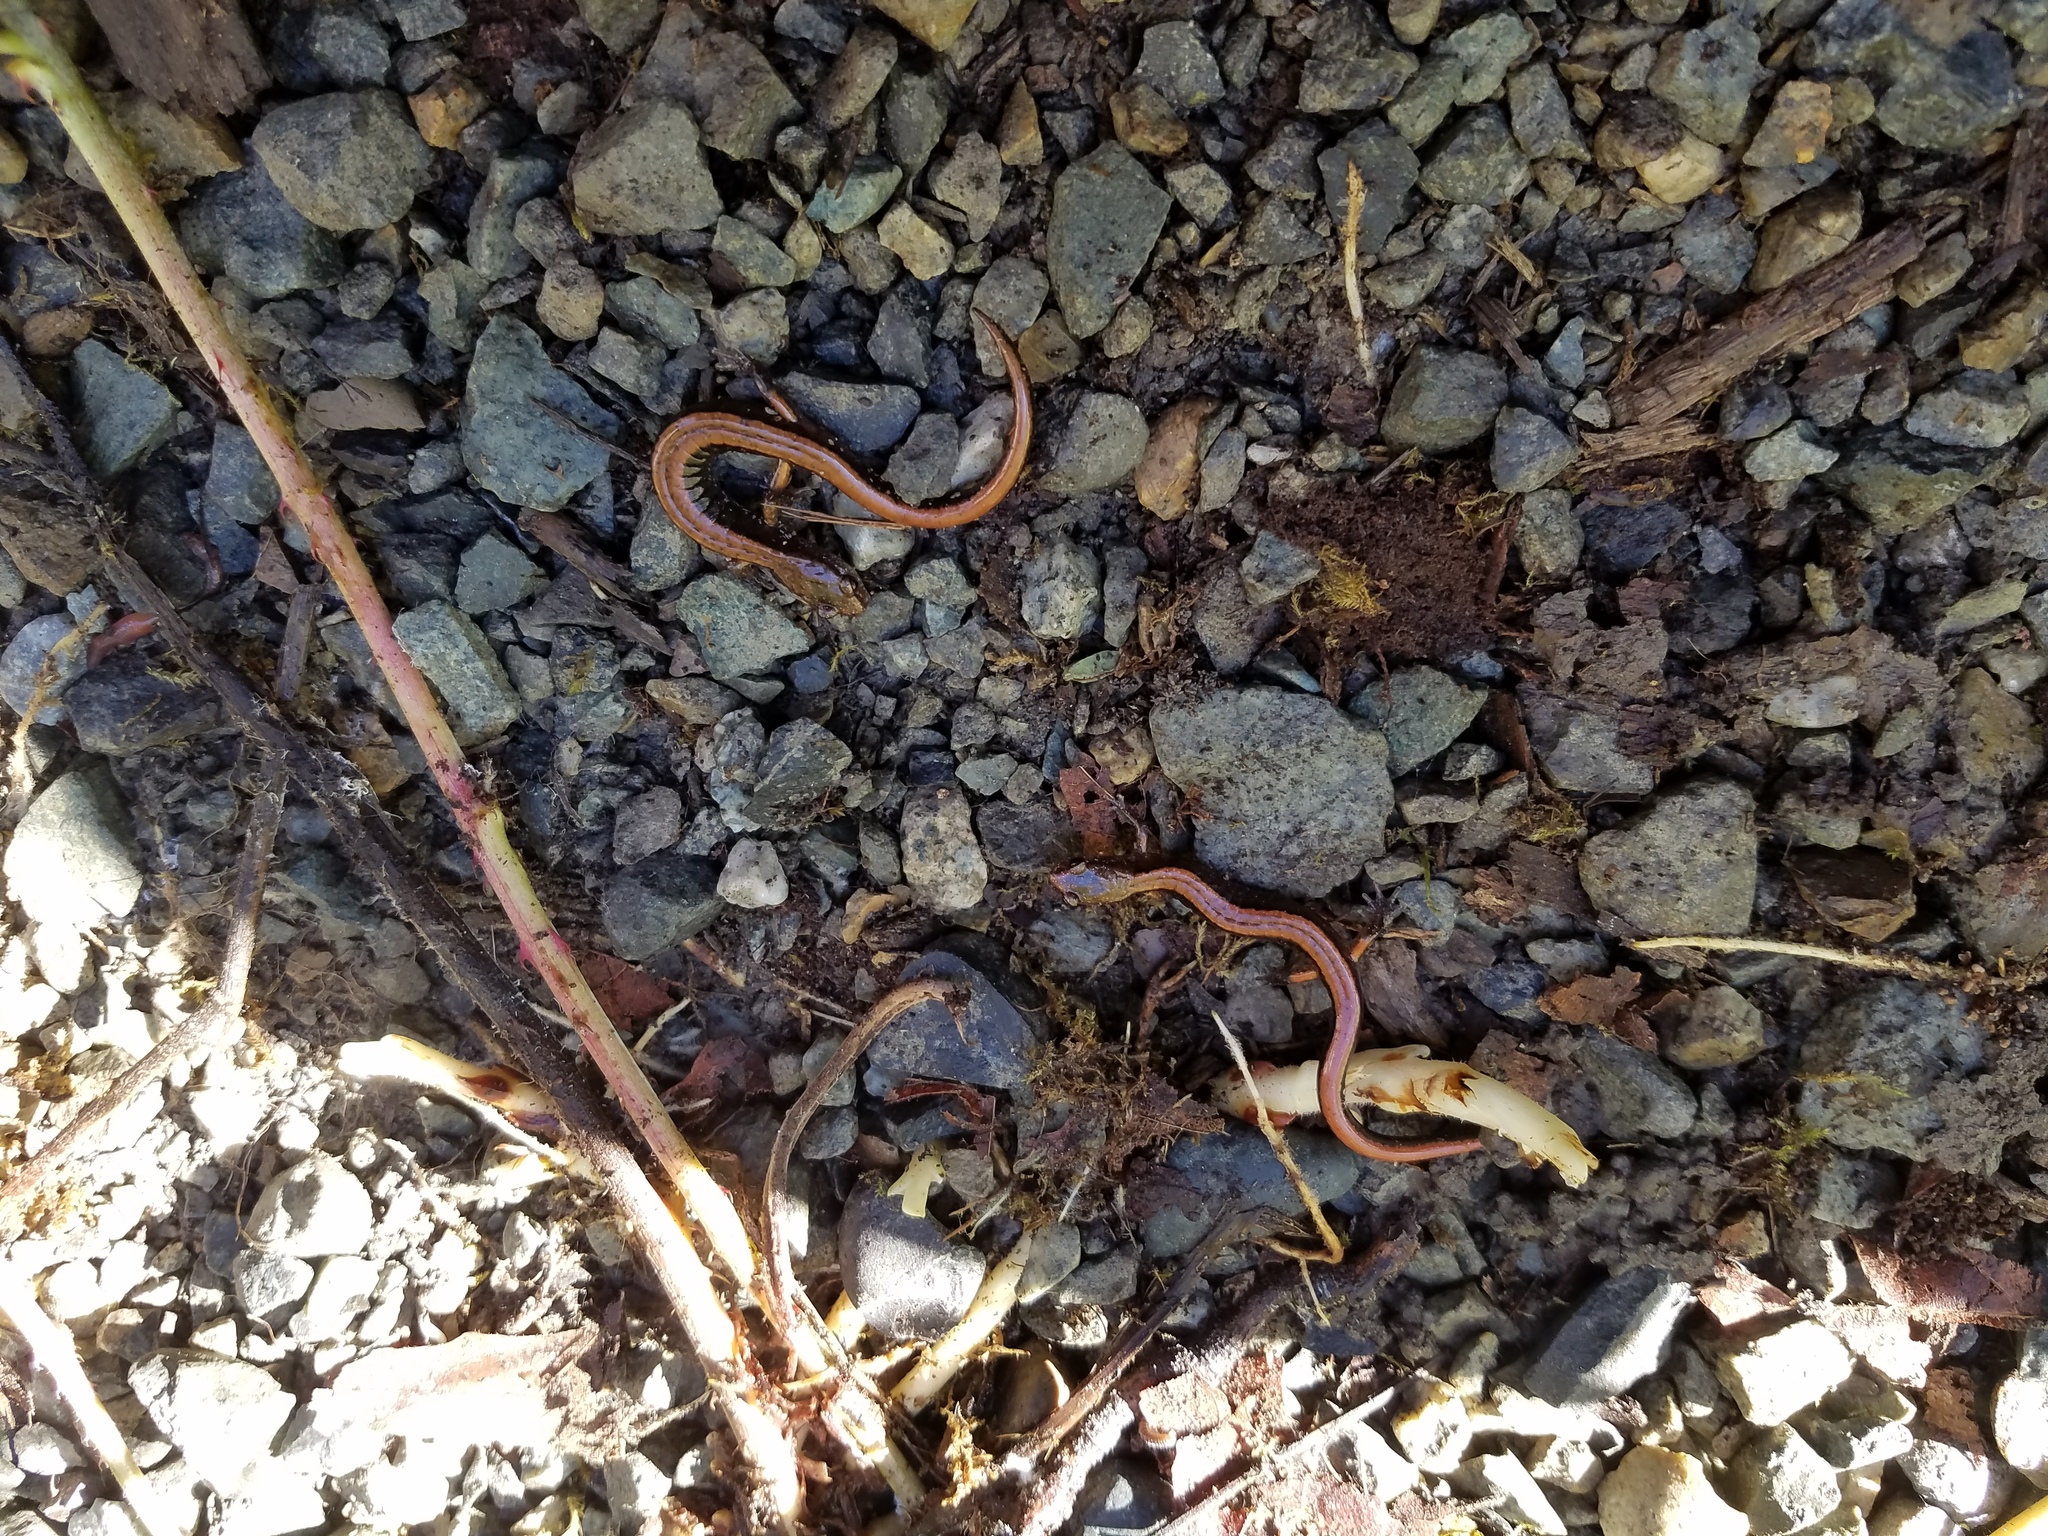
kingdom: Animalia
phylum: Chordata
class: Amphibia
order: Caudata
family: Plethodontidae
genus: Plethodon
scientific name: Plethodon vehiculum
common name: Western red-backed salamander
